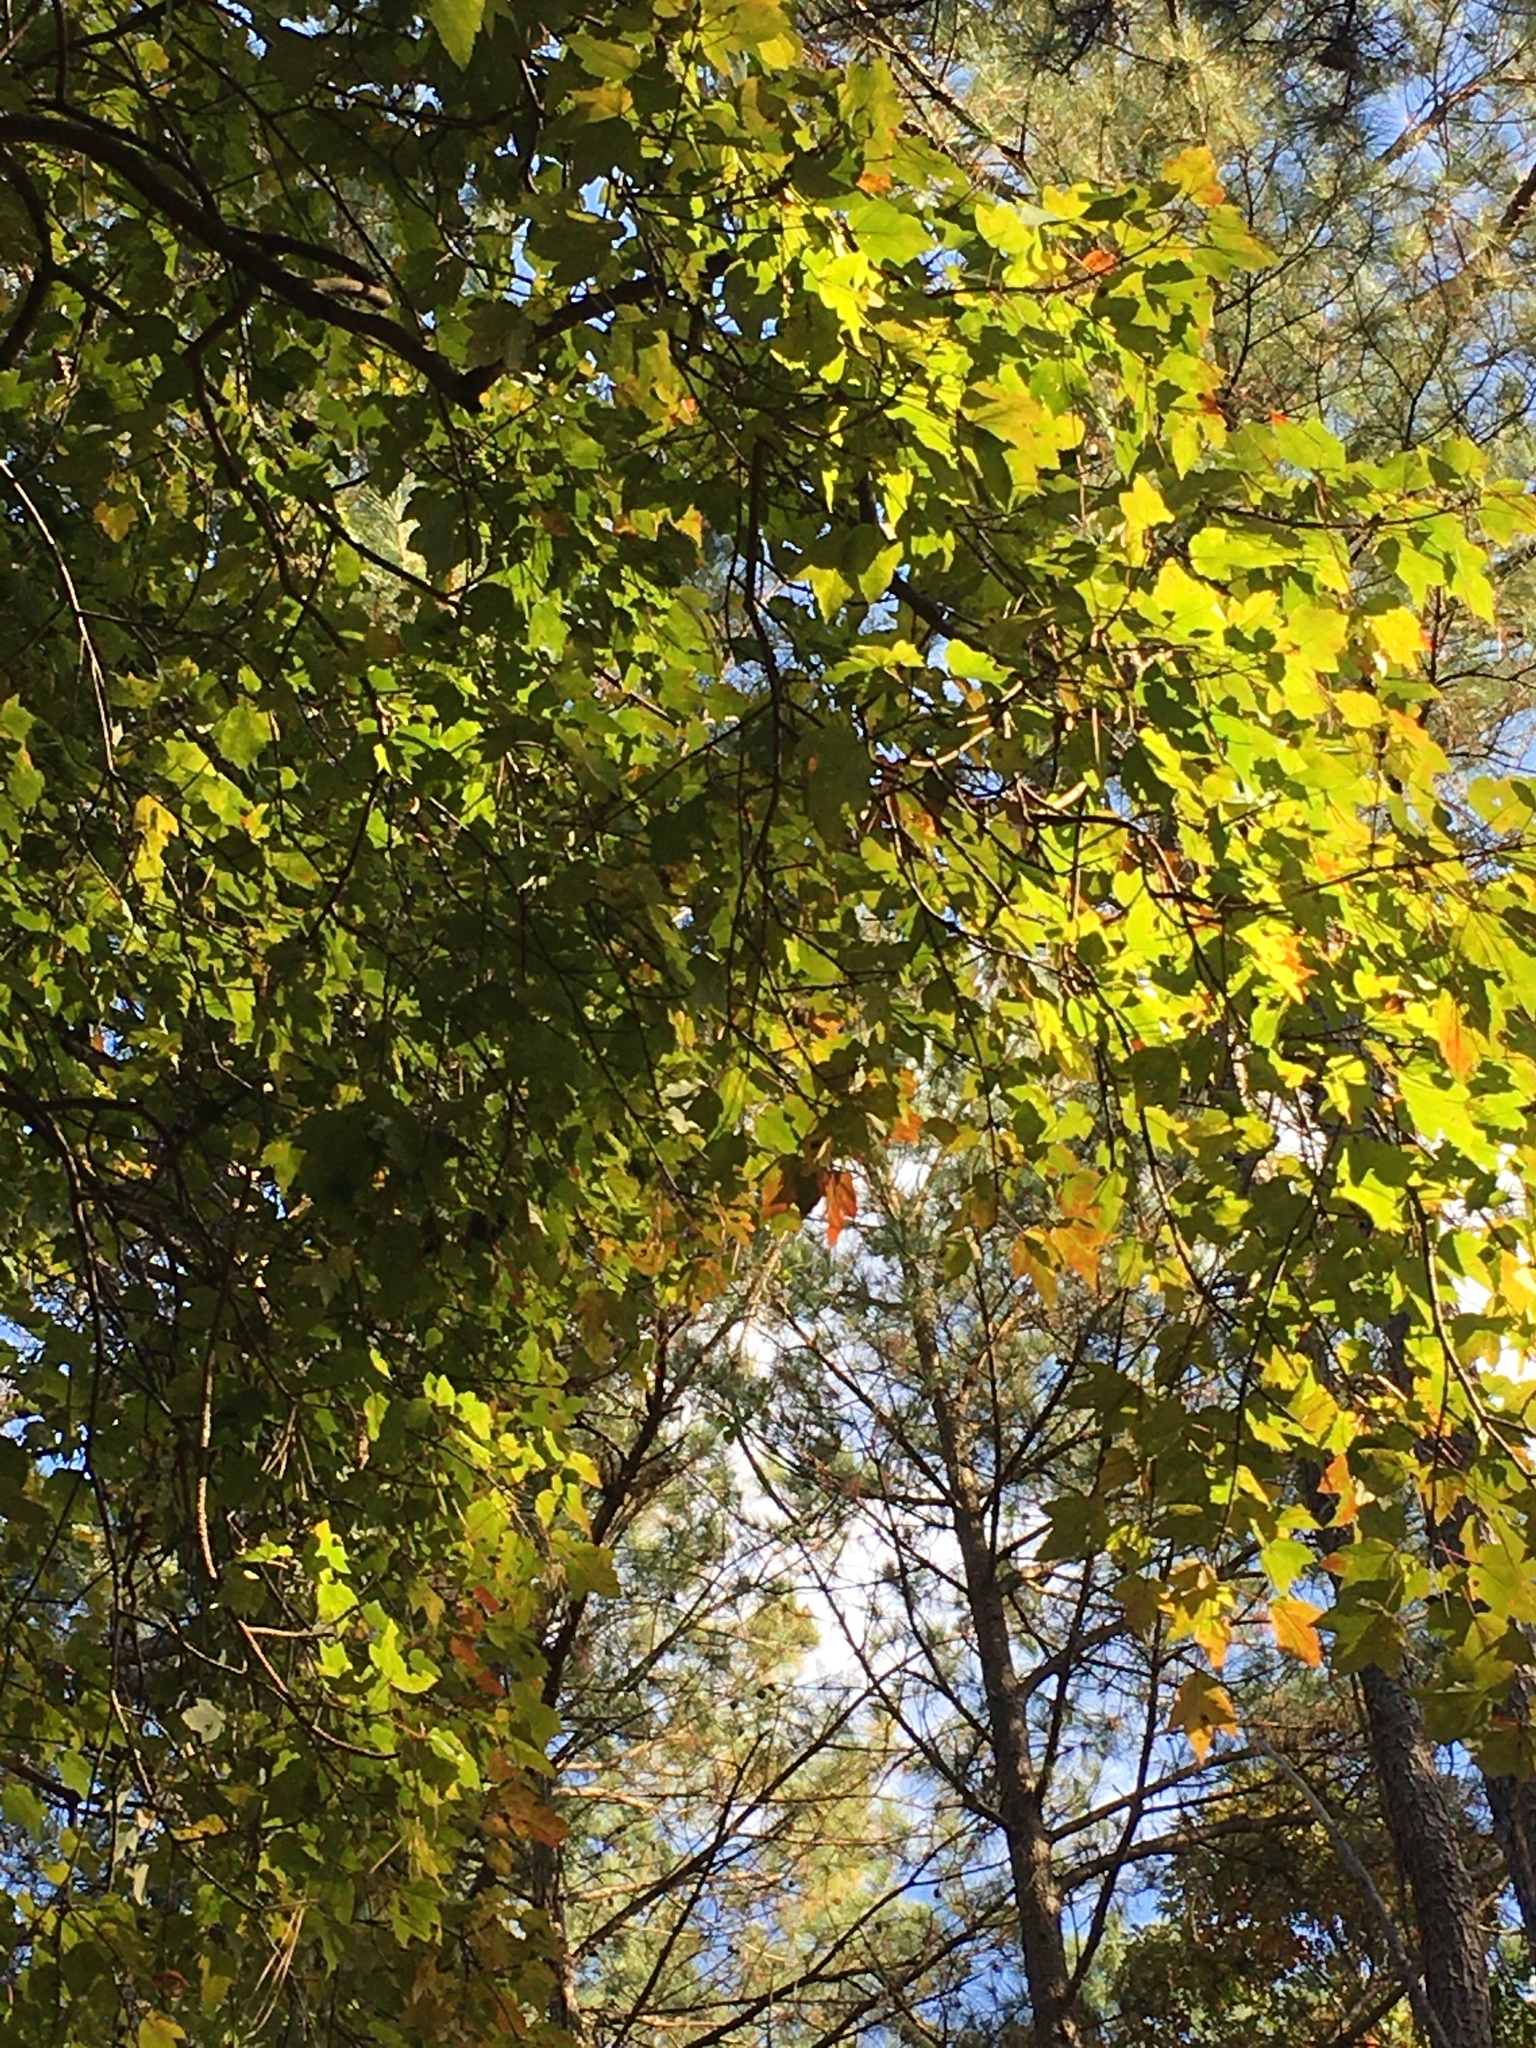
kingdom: Plantae
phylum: Tracheophyta
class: Magnoliopsida
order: Sapindales
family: Sapindaceae
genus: Acer
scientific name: Acer rubrum
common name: Red maple
